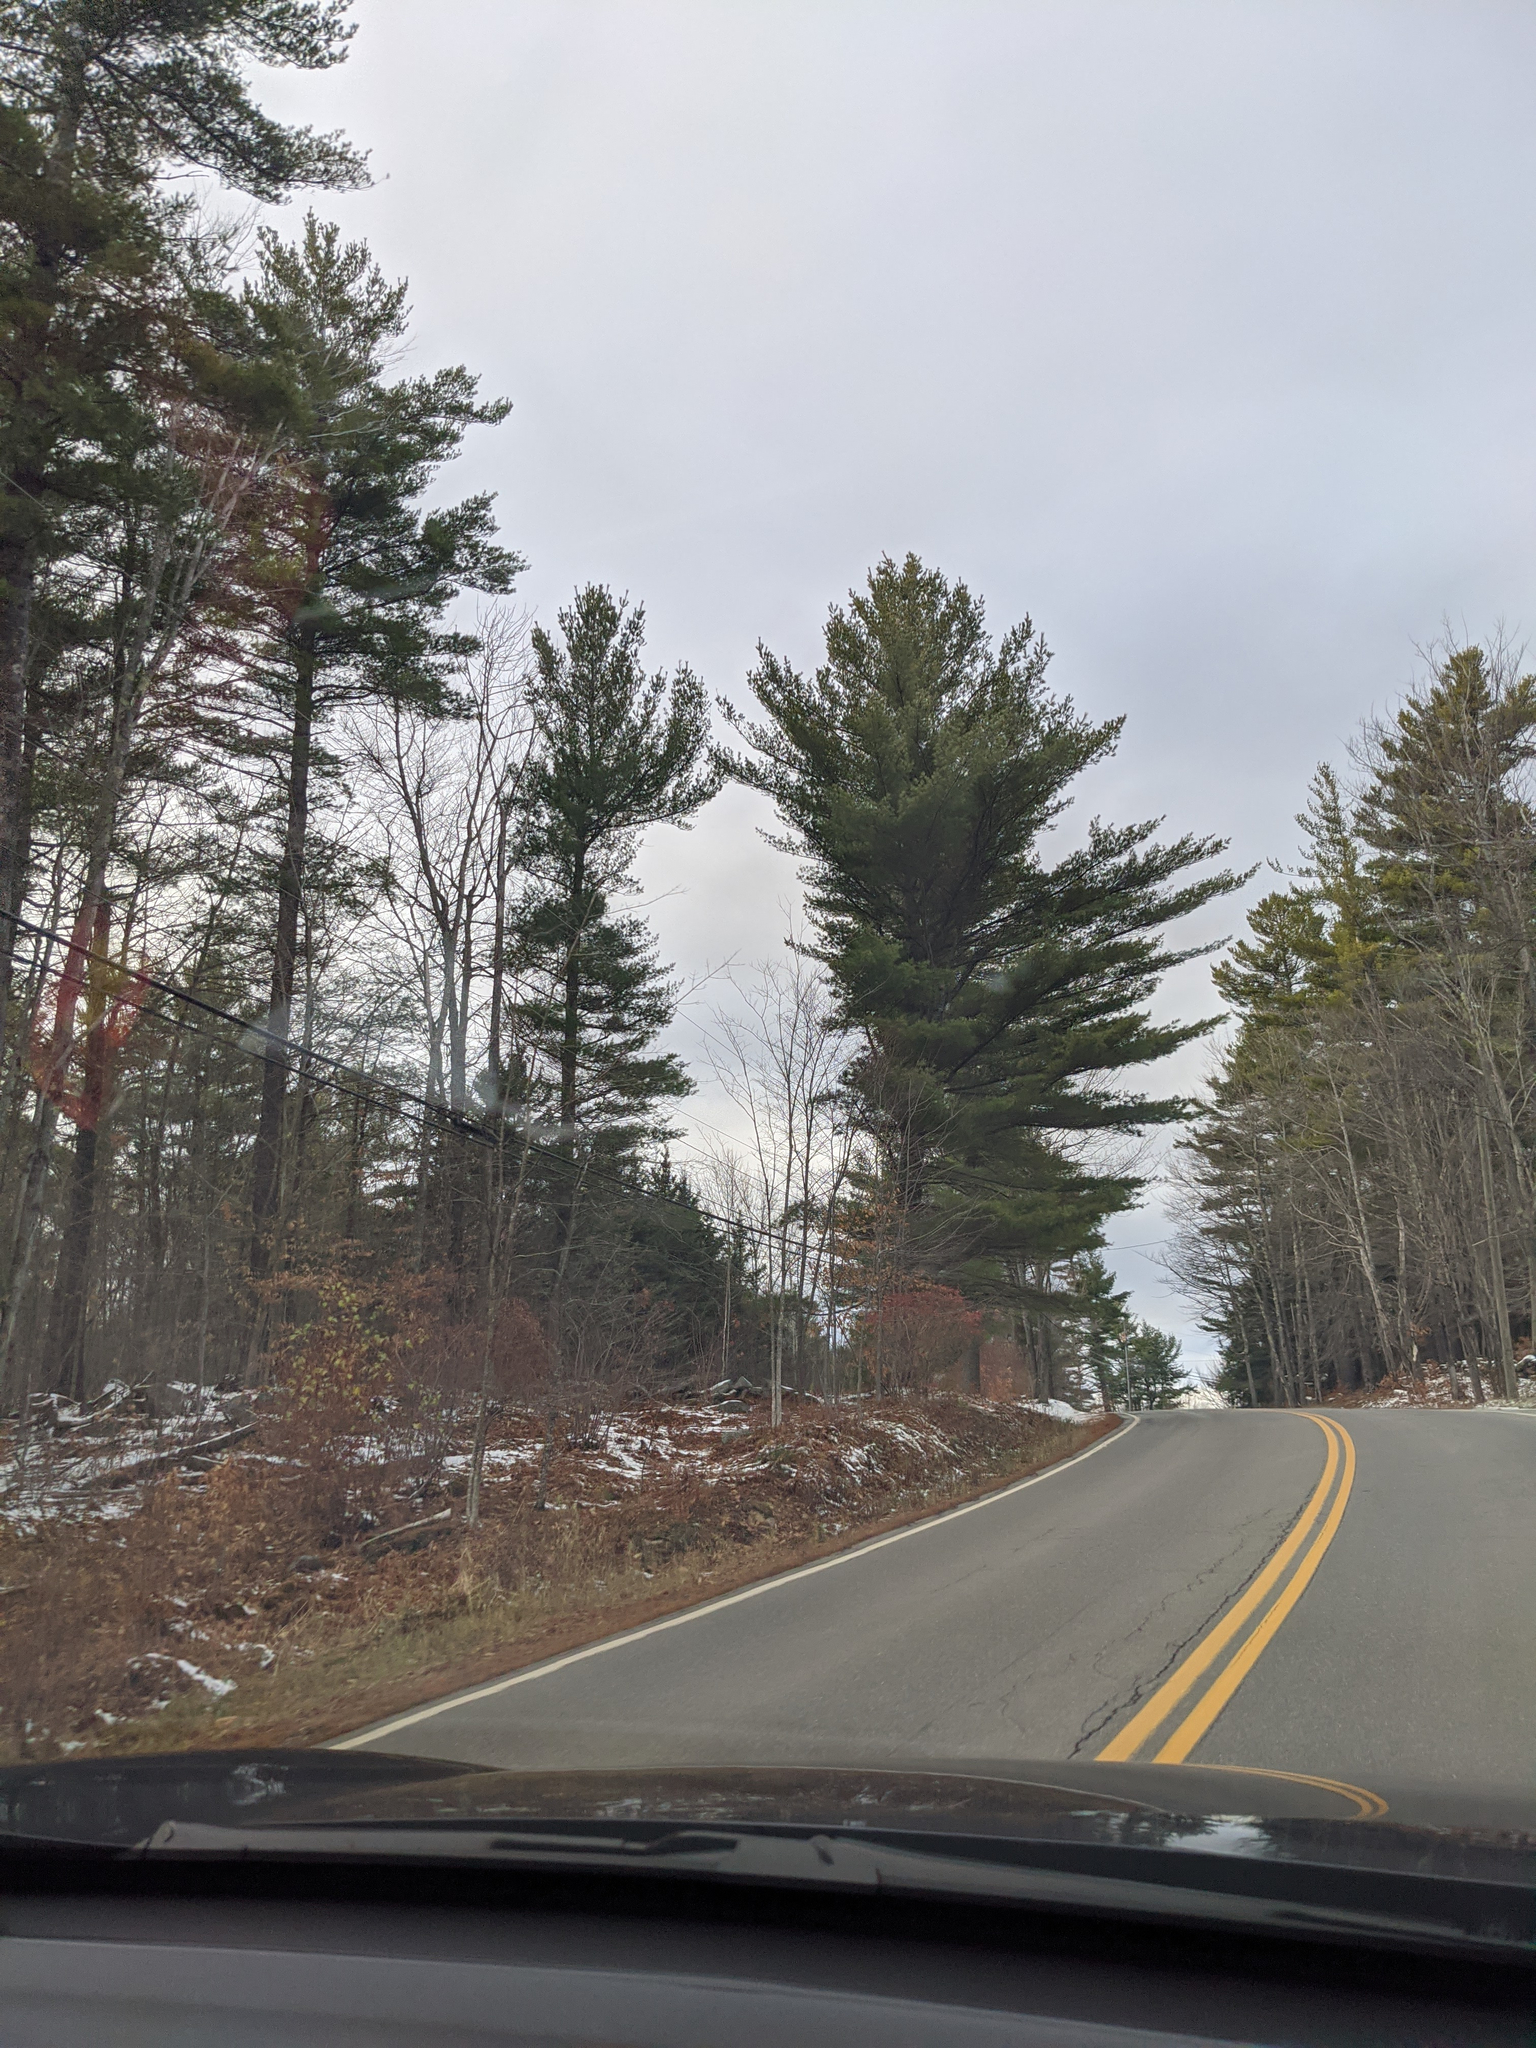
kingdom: Plantae
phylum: Tracheophyta
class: Pinopsida
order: Pinales
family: Pinaceae
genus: Pinus
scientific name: Pinus strobus
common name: Weymouth pine
